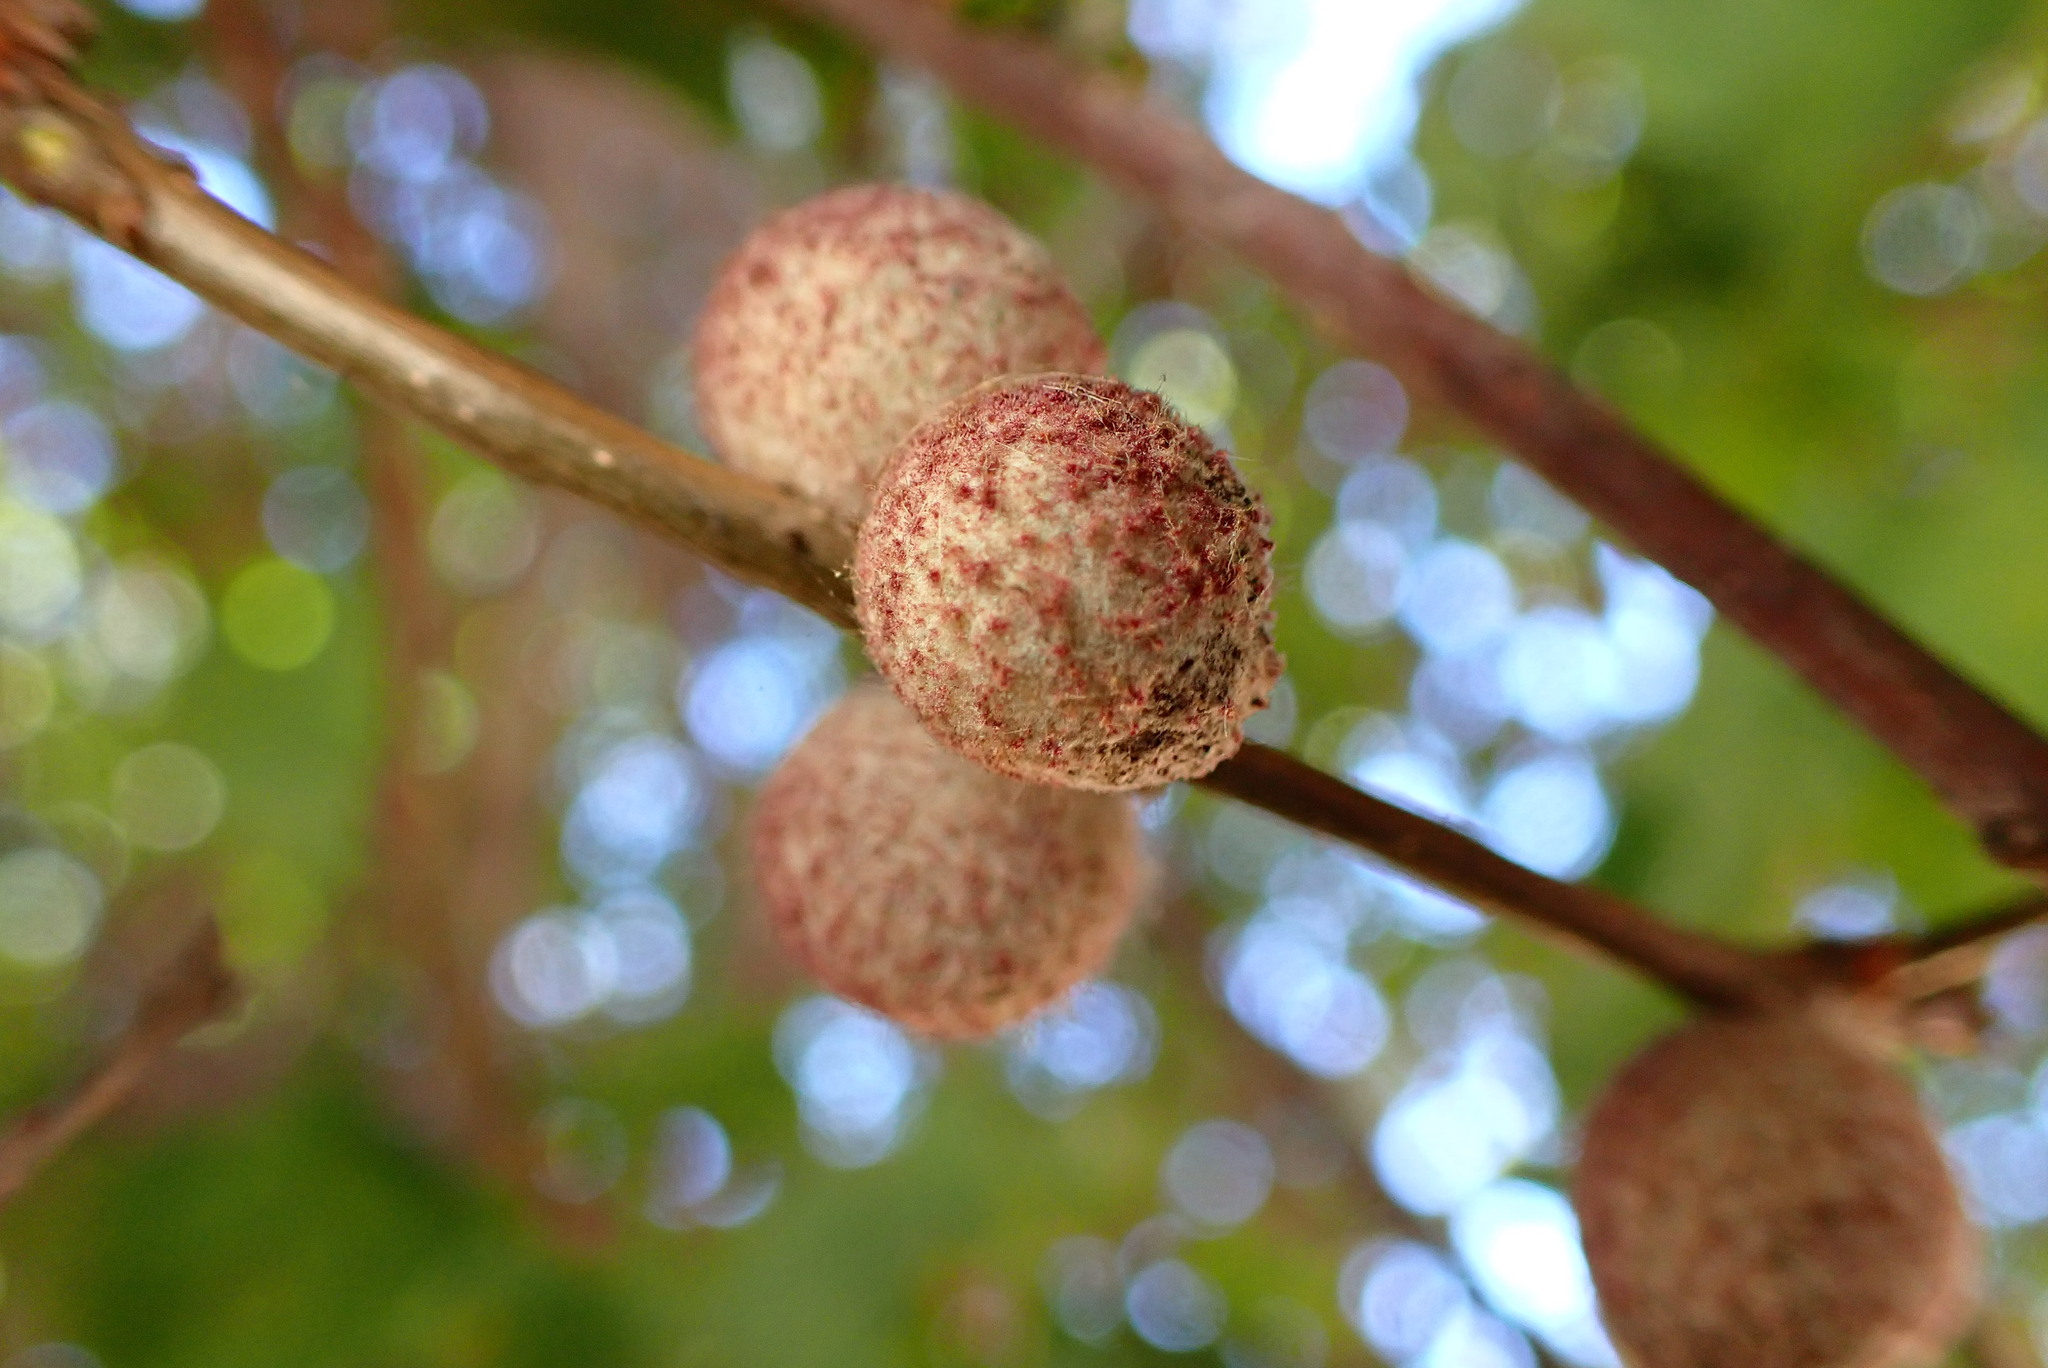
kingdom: Animalia
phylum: Arthropoda
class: Insecta
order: Hymenoptera
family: Cynipidae
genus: Burnettweldia
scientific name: Burnettweldia
